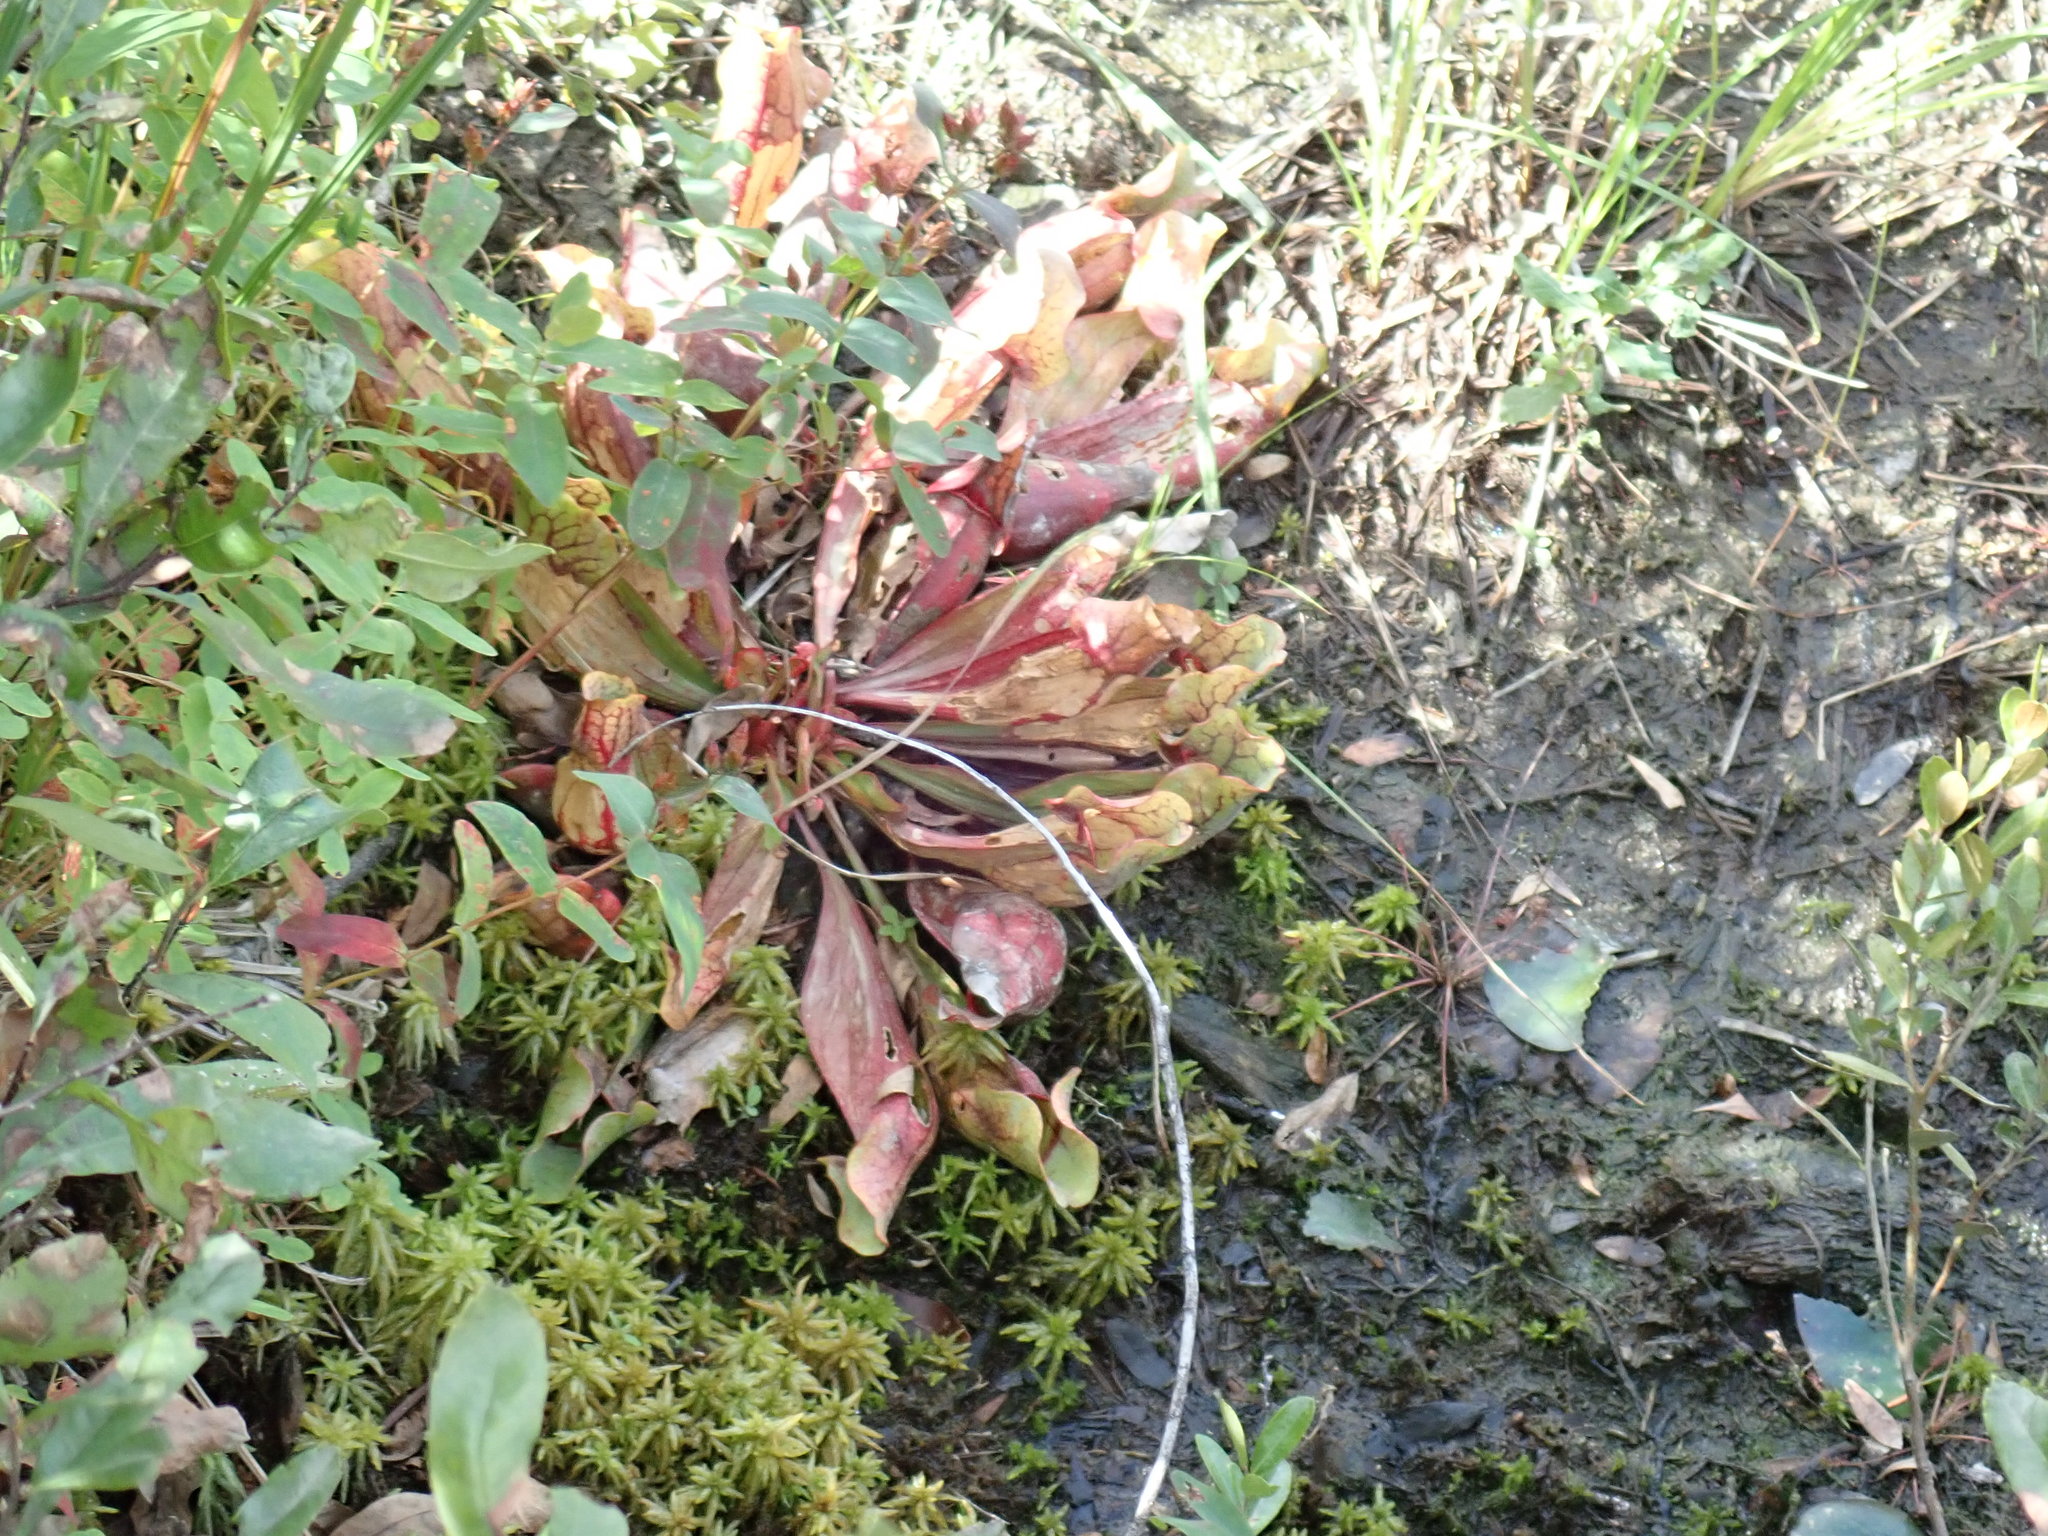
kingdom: Plantae
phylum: Tracheophyta
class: Magnoliopsida
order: Ericales
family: Sarraceniaceae
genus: Sarracenia
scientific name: Sarracenia purpurea
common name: Pitcherplant
